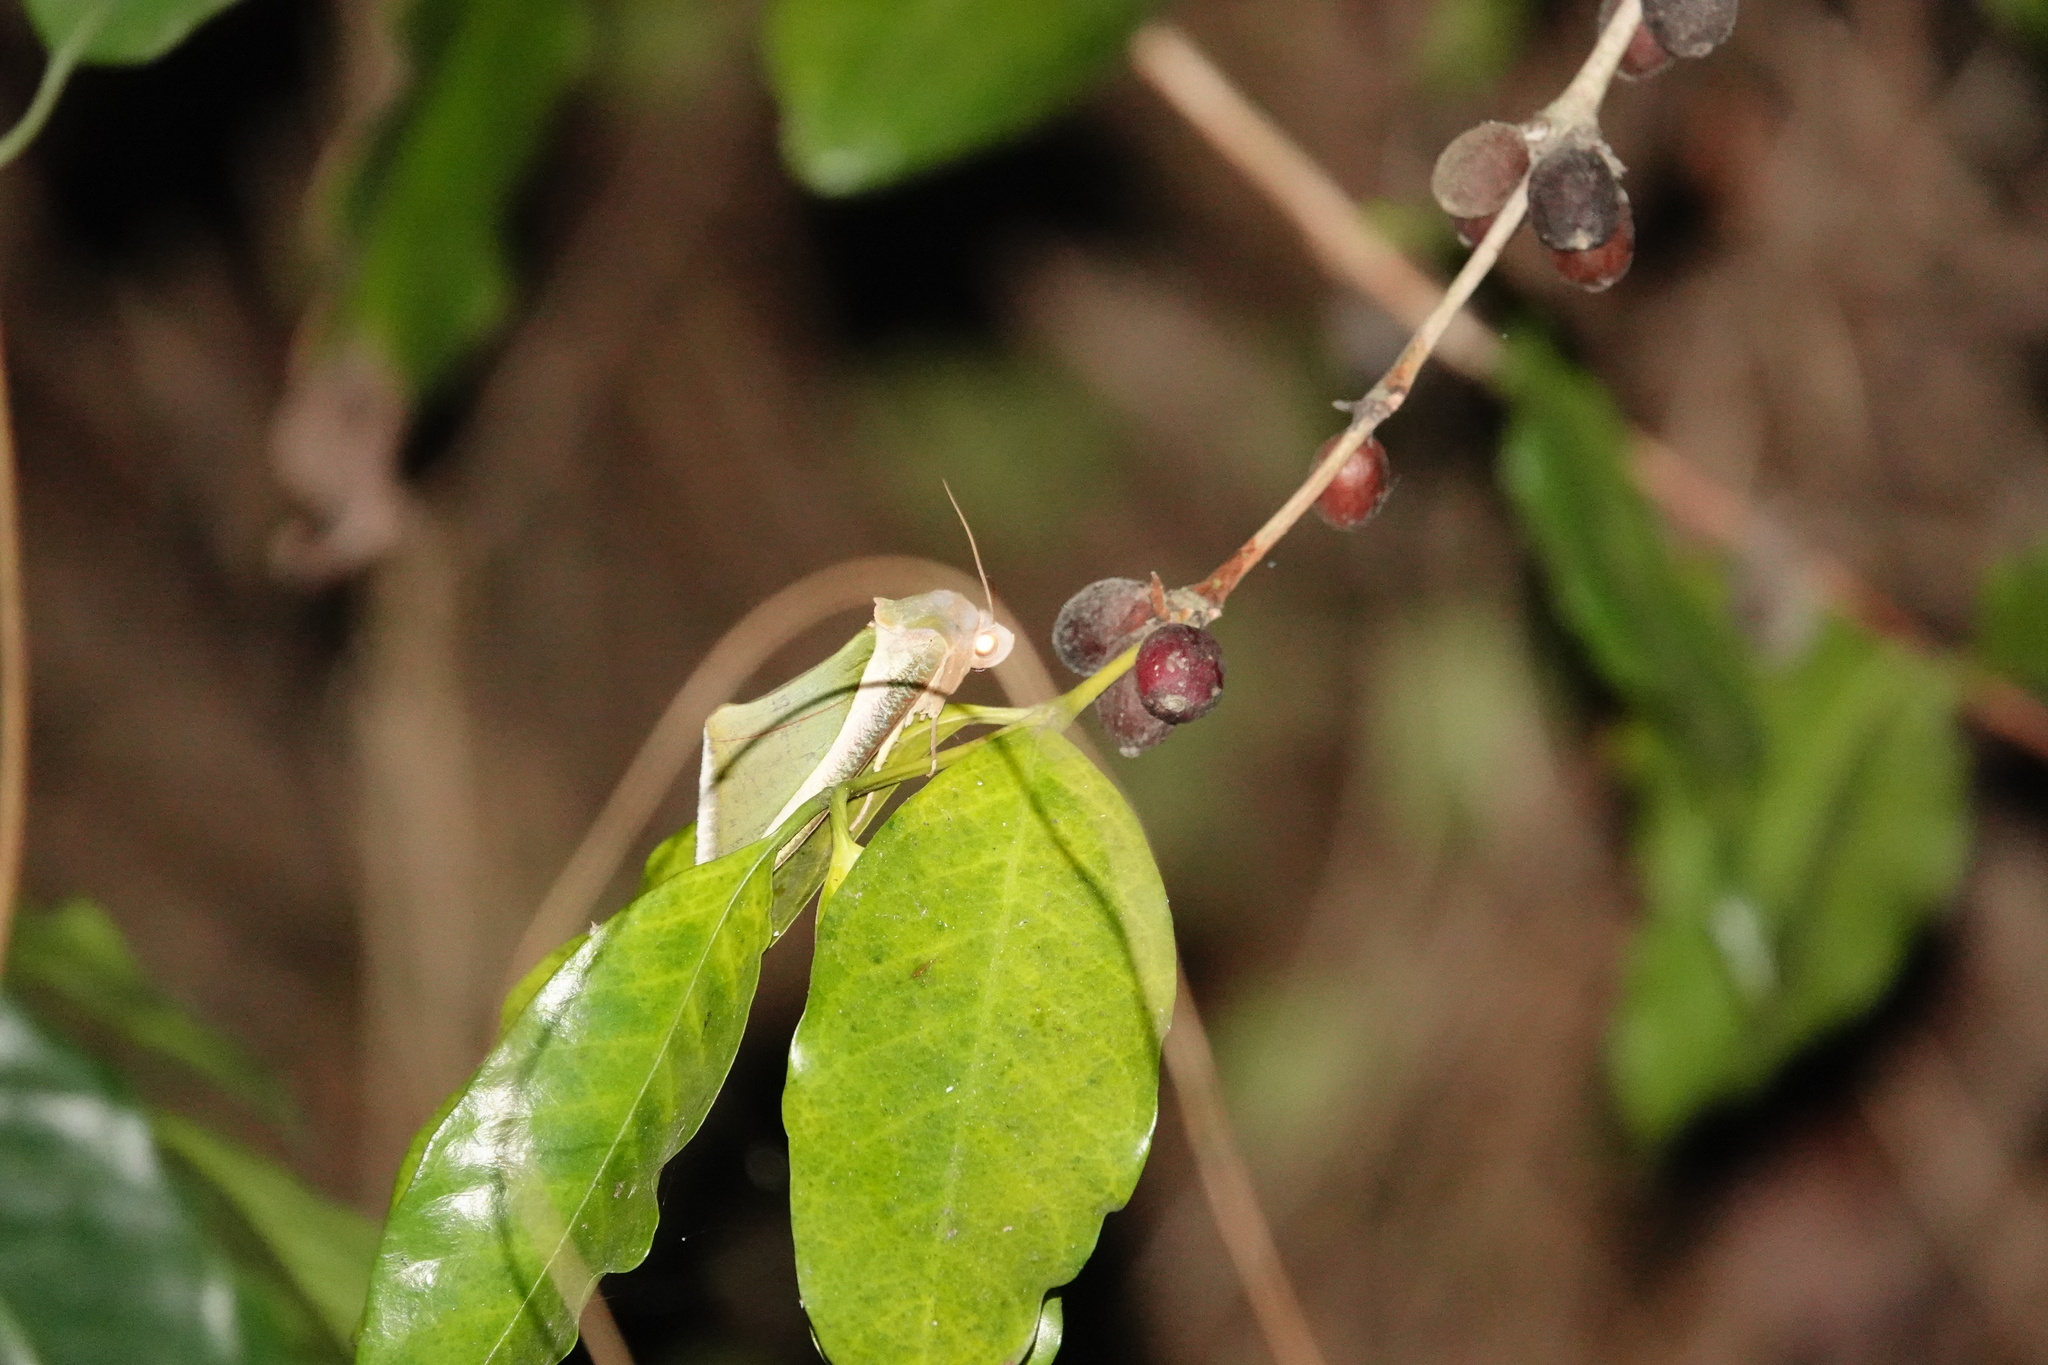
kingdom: Animalia
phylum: Arthropoda
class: Insecta
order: Lepidoptera
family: Erebidae
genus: Eudocima
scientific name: Eudocima salaminia
